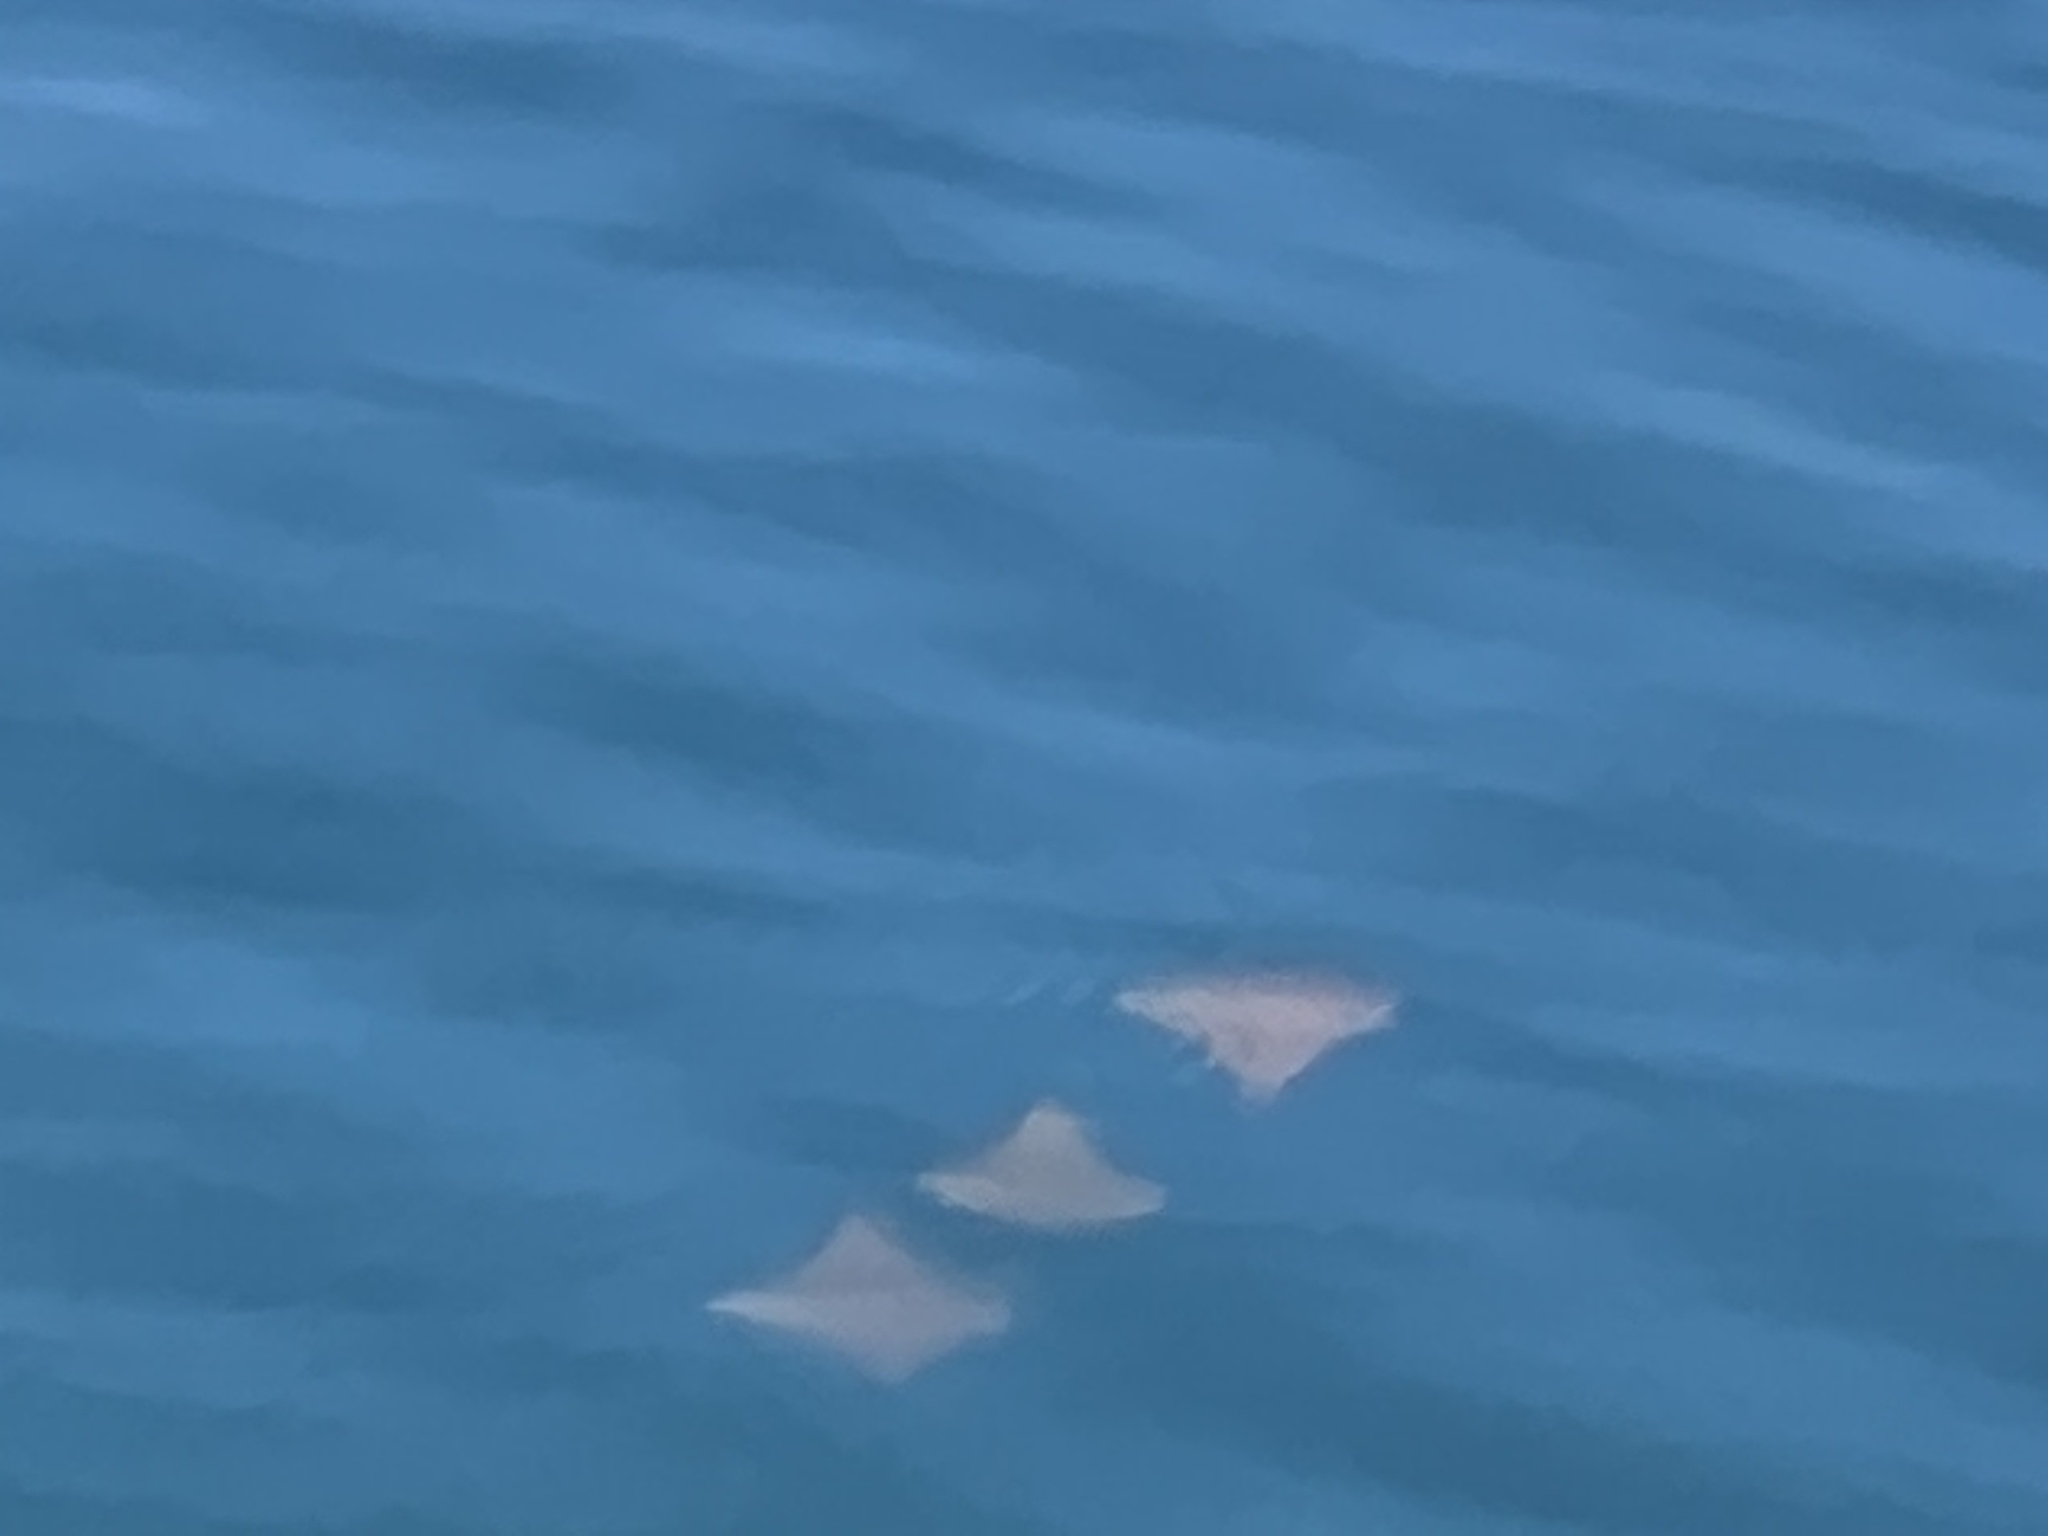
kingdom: Animalia
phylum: Chordata
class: Elasmobranchii
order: Myliobatiformes
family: Myliobatidae
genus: Rhinoptera
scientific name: Rhinoptera steindachneri
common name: Golden cownose ray
